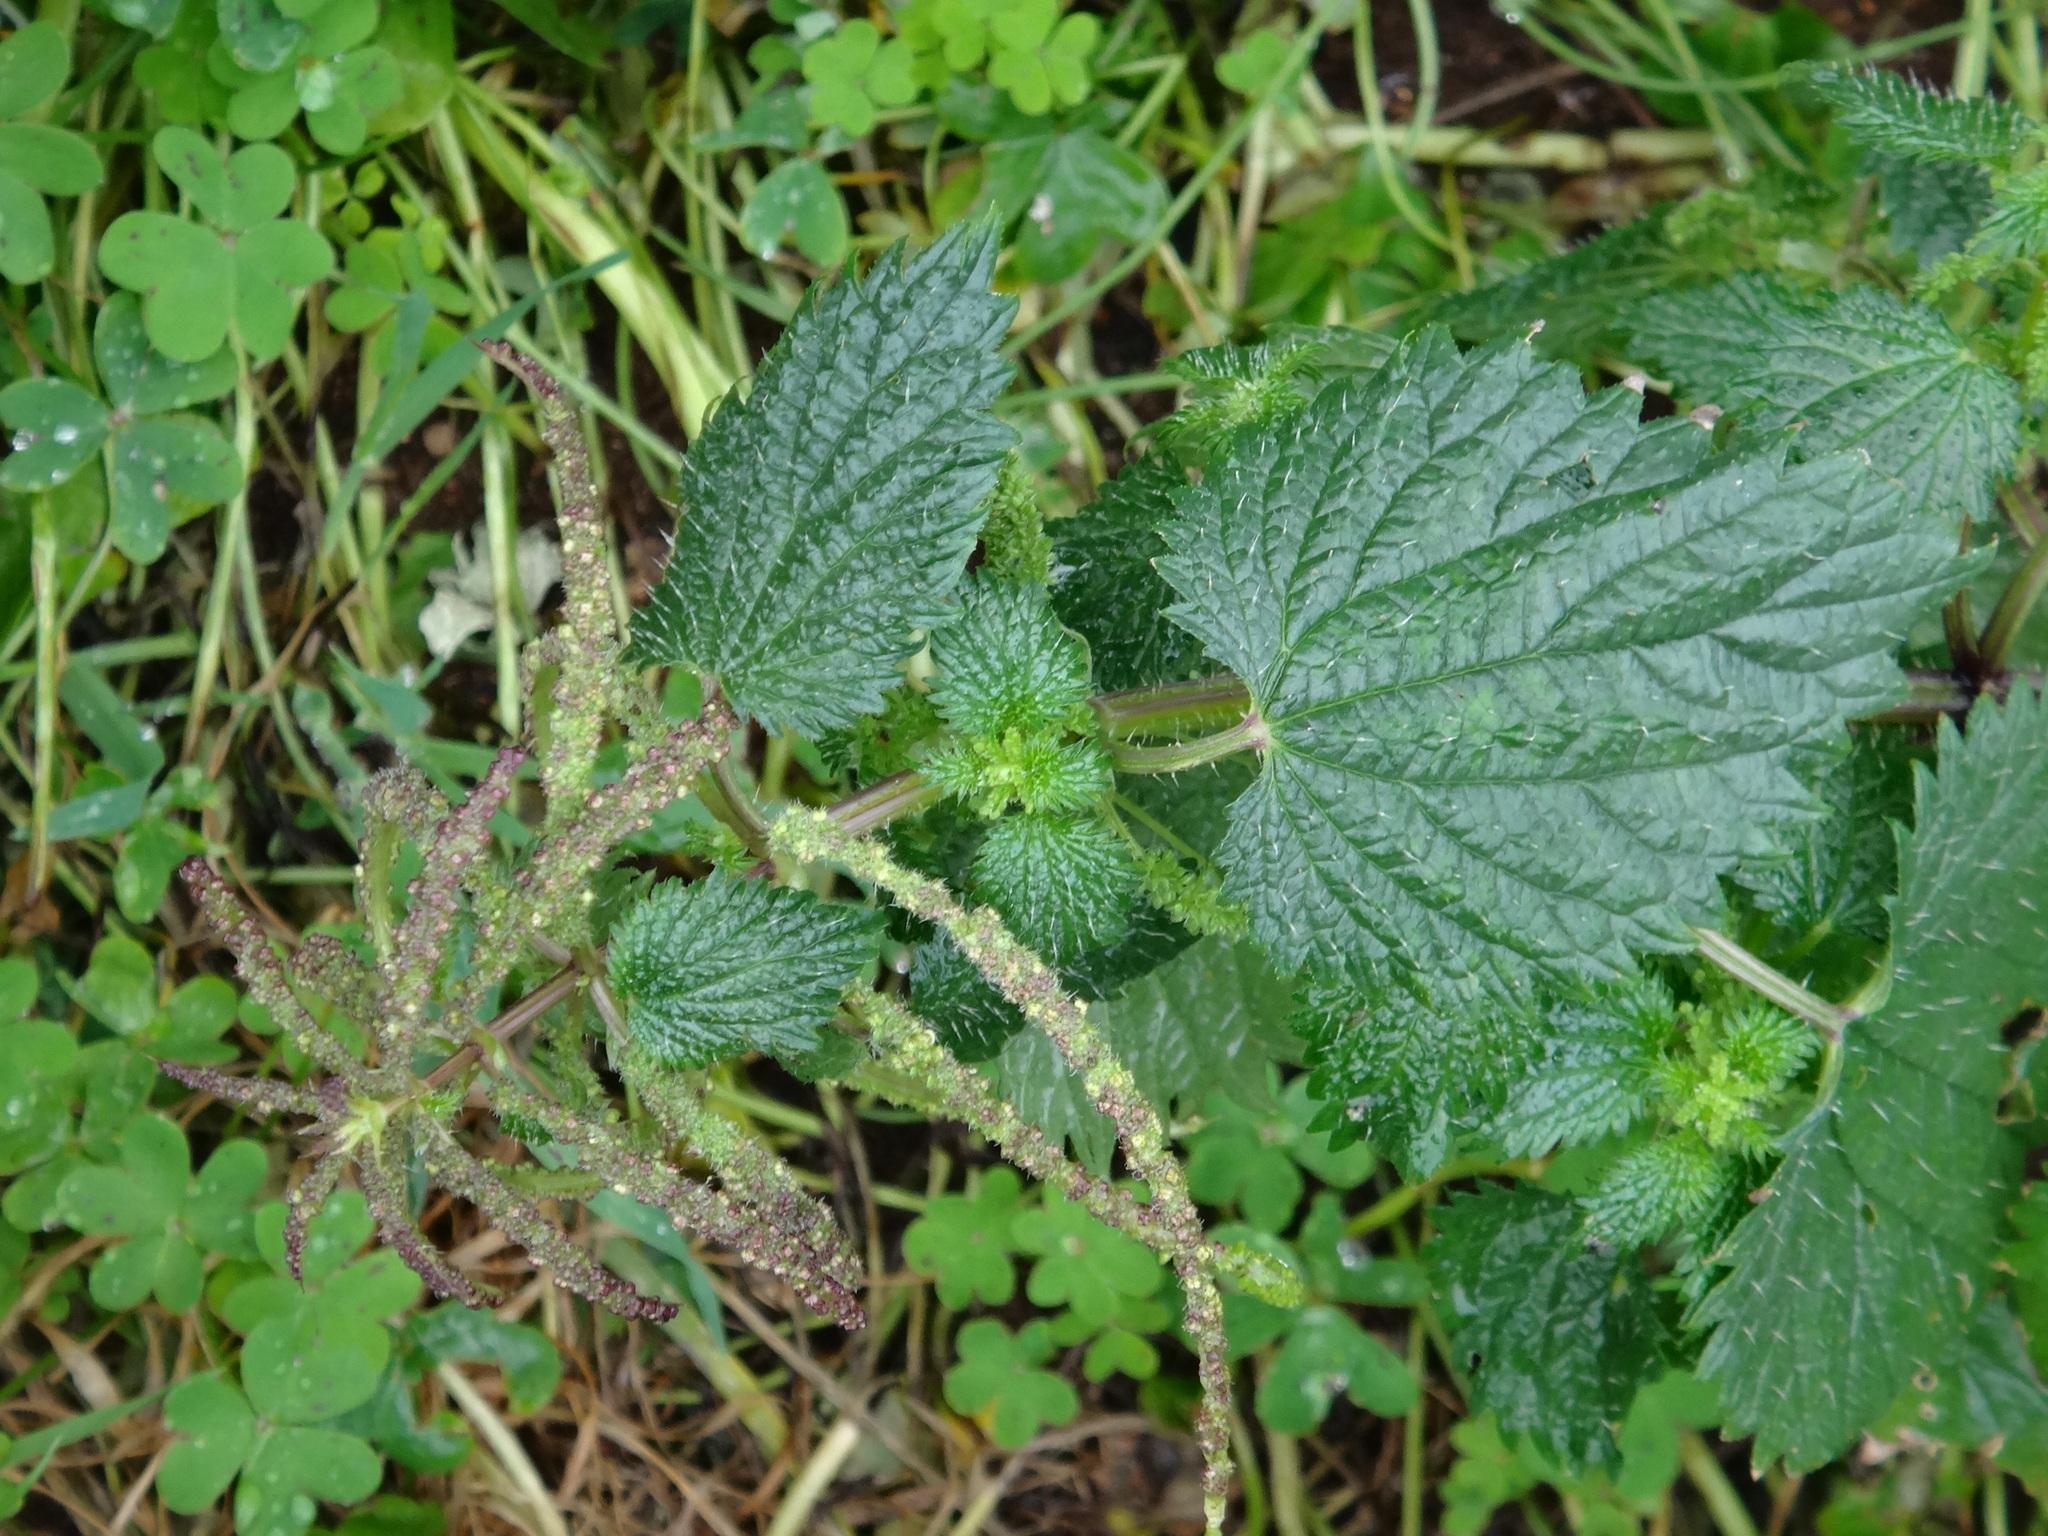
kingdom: Plantae
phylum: Tracheophyta
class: Magnoliopsida
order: Rosales
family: Urticaceae
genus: Urtica
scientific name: Urtica membranacea
